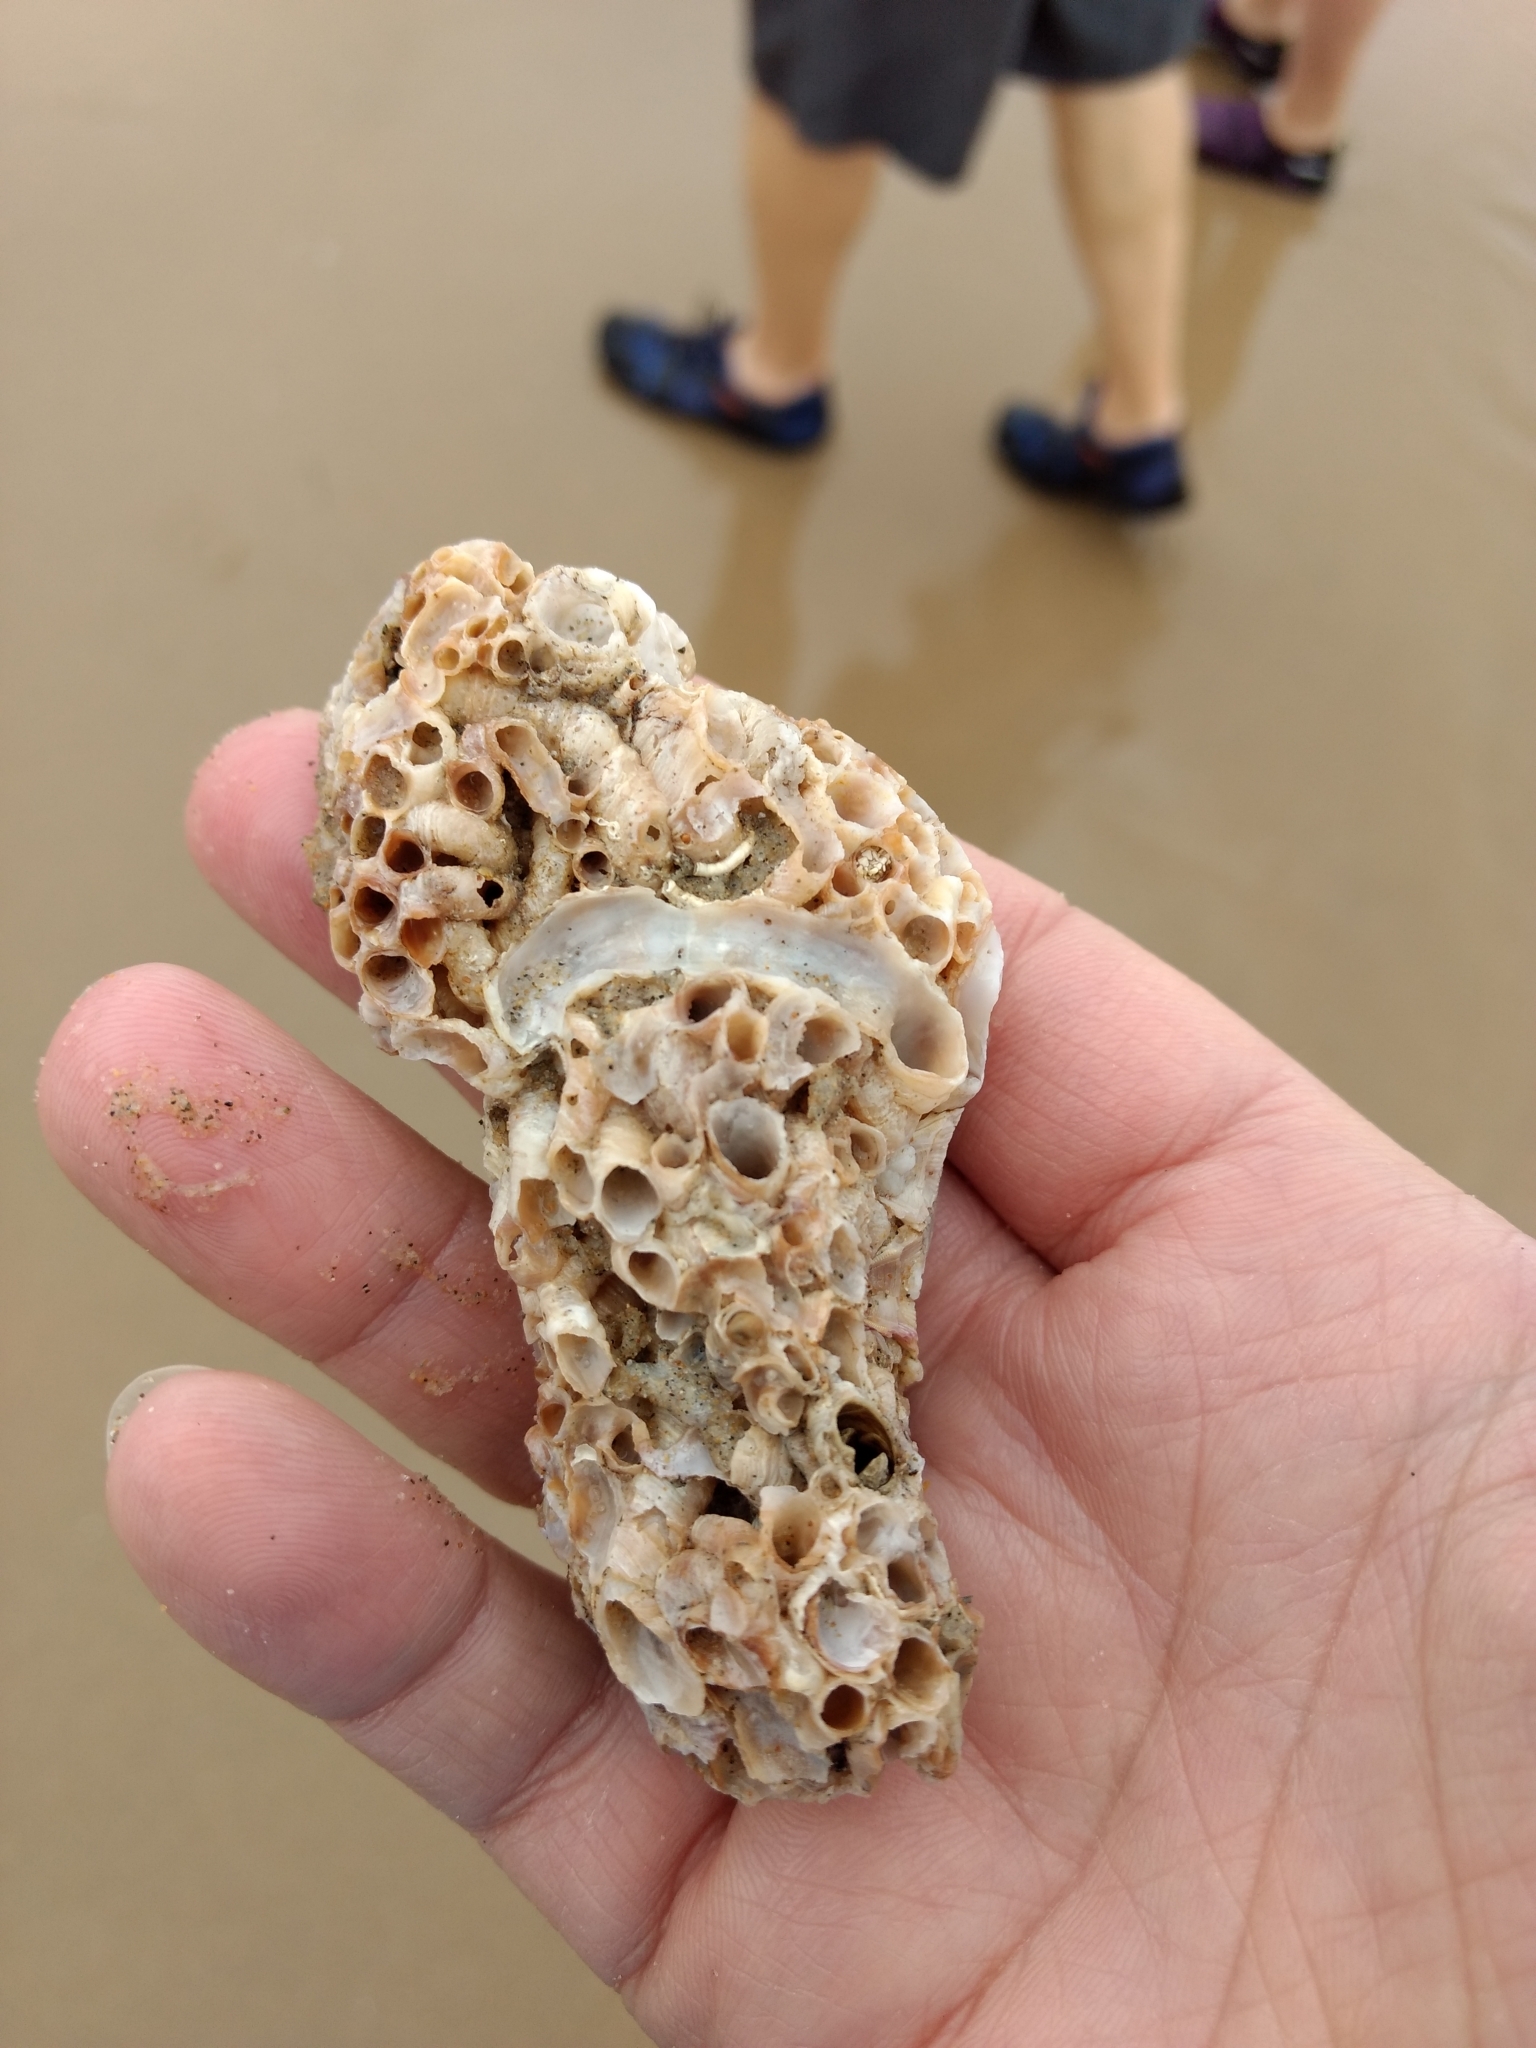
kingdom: Animalia
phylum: Mollusca
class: Gastropoda
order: Littorinimorpha
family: Vermetidae
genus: Thylacodes
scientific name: Thylacodes squamigerus
